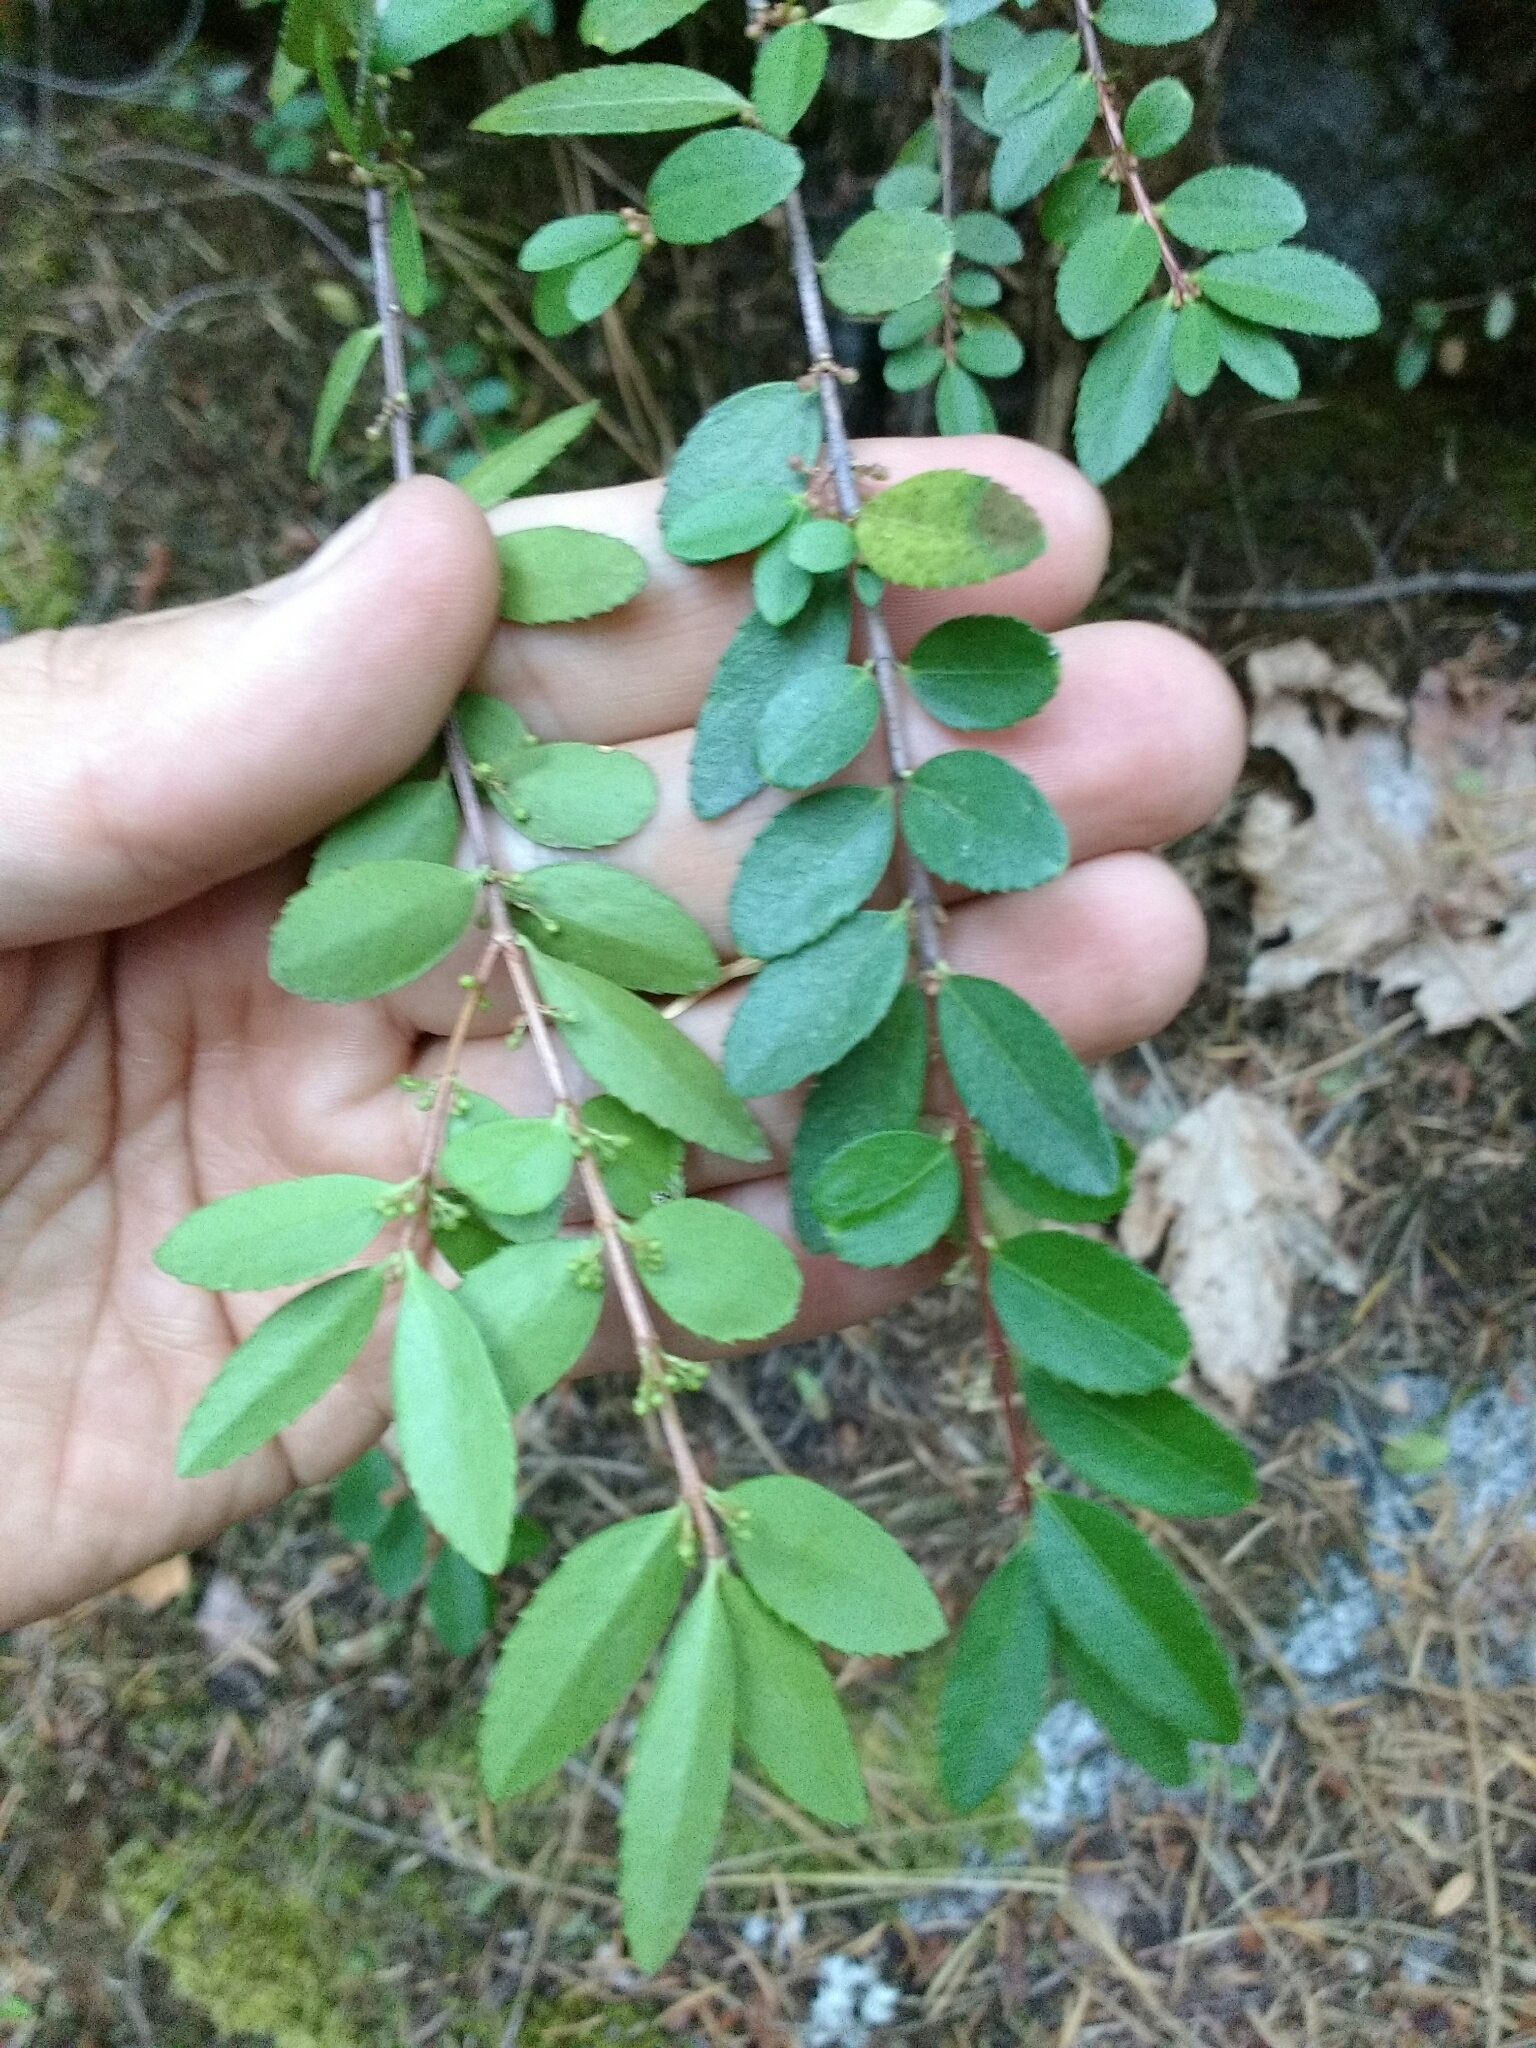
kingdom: Plantae
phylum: Tracheophyta
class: Magnoliopsida
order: Celastrales
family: Celastraceae
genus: Paxistima
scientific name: Paxistima myrsinites
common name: Mountain-lover
